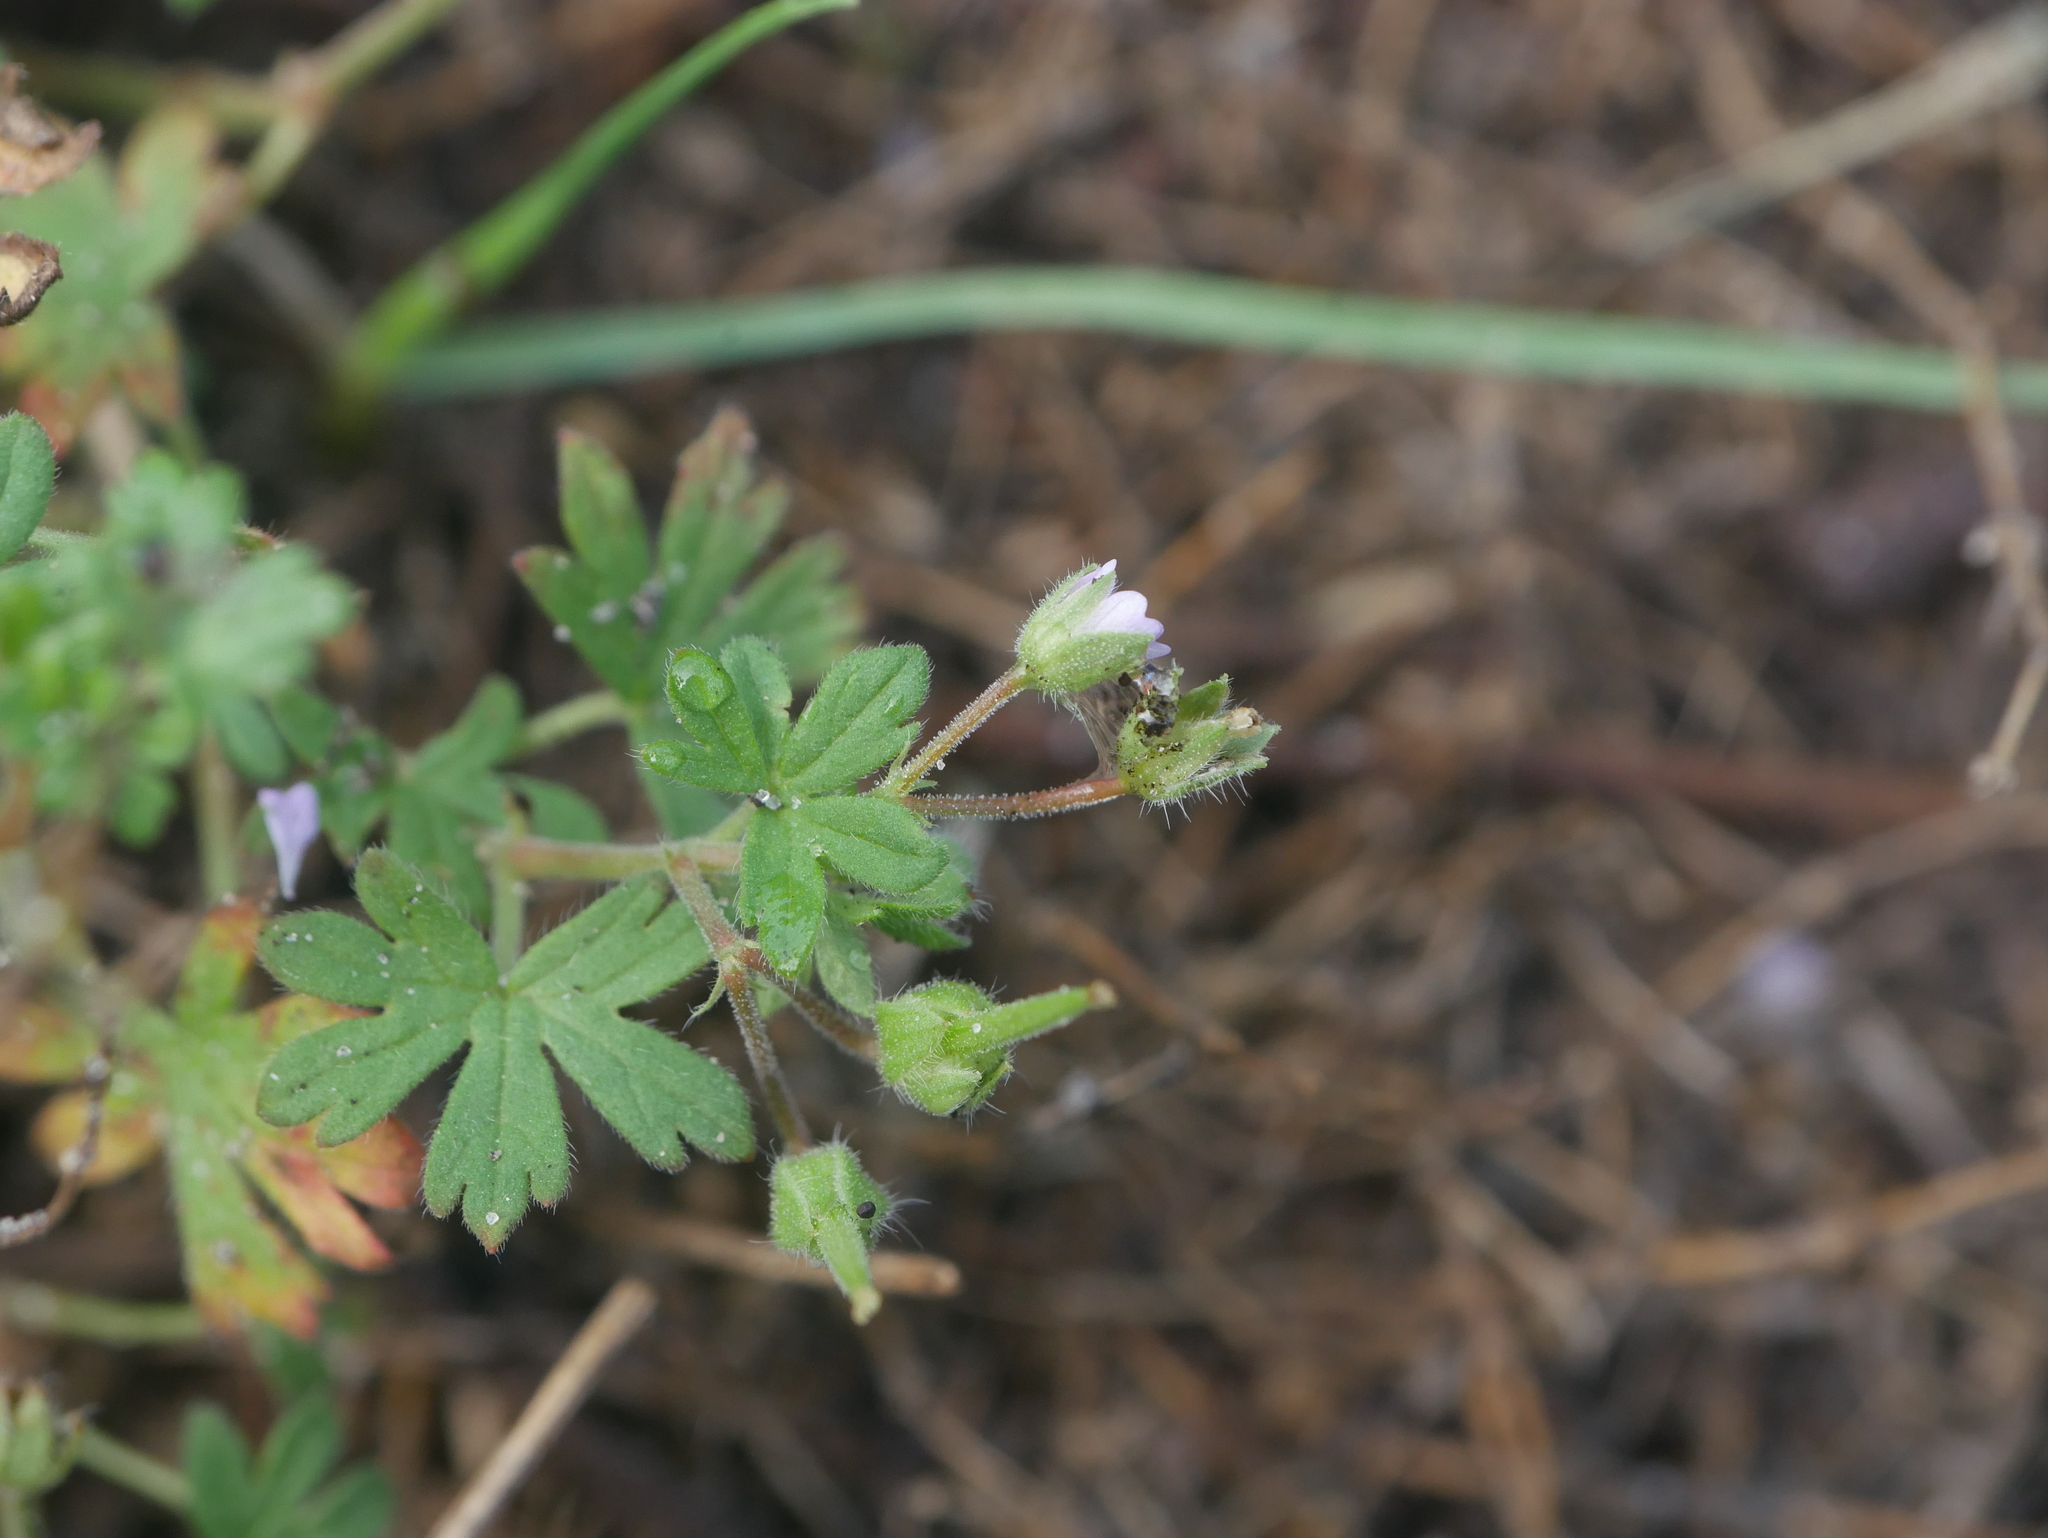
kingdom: Plantae
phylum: Tracheophyta
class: Magnoliopsida
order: Geraniales
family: Geraniaceae
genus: Geranium
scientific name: Geranium pusillum
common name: Small geranium
